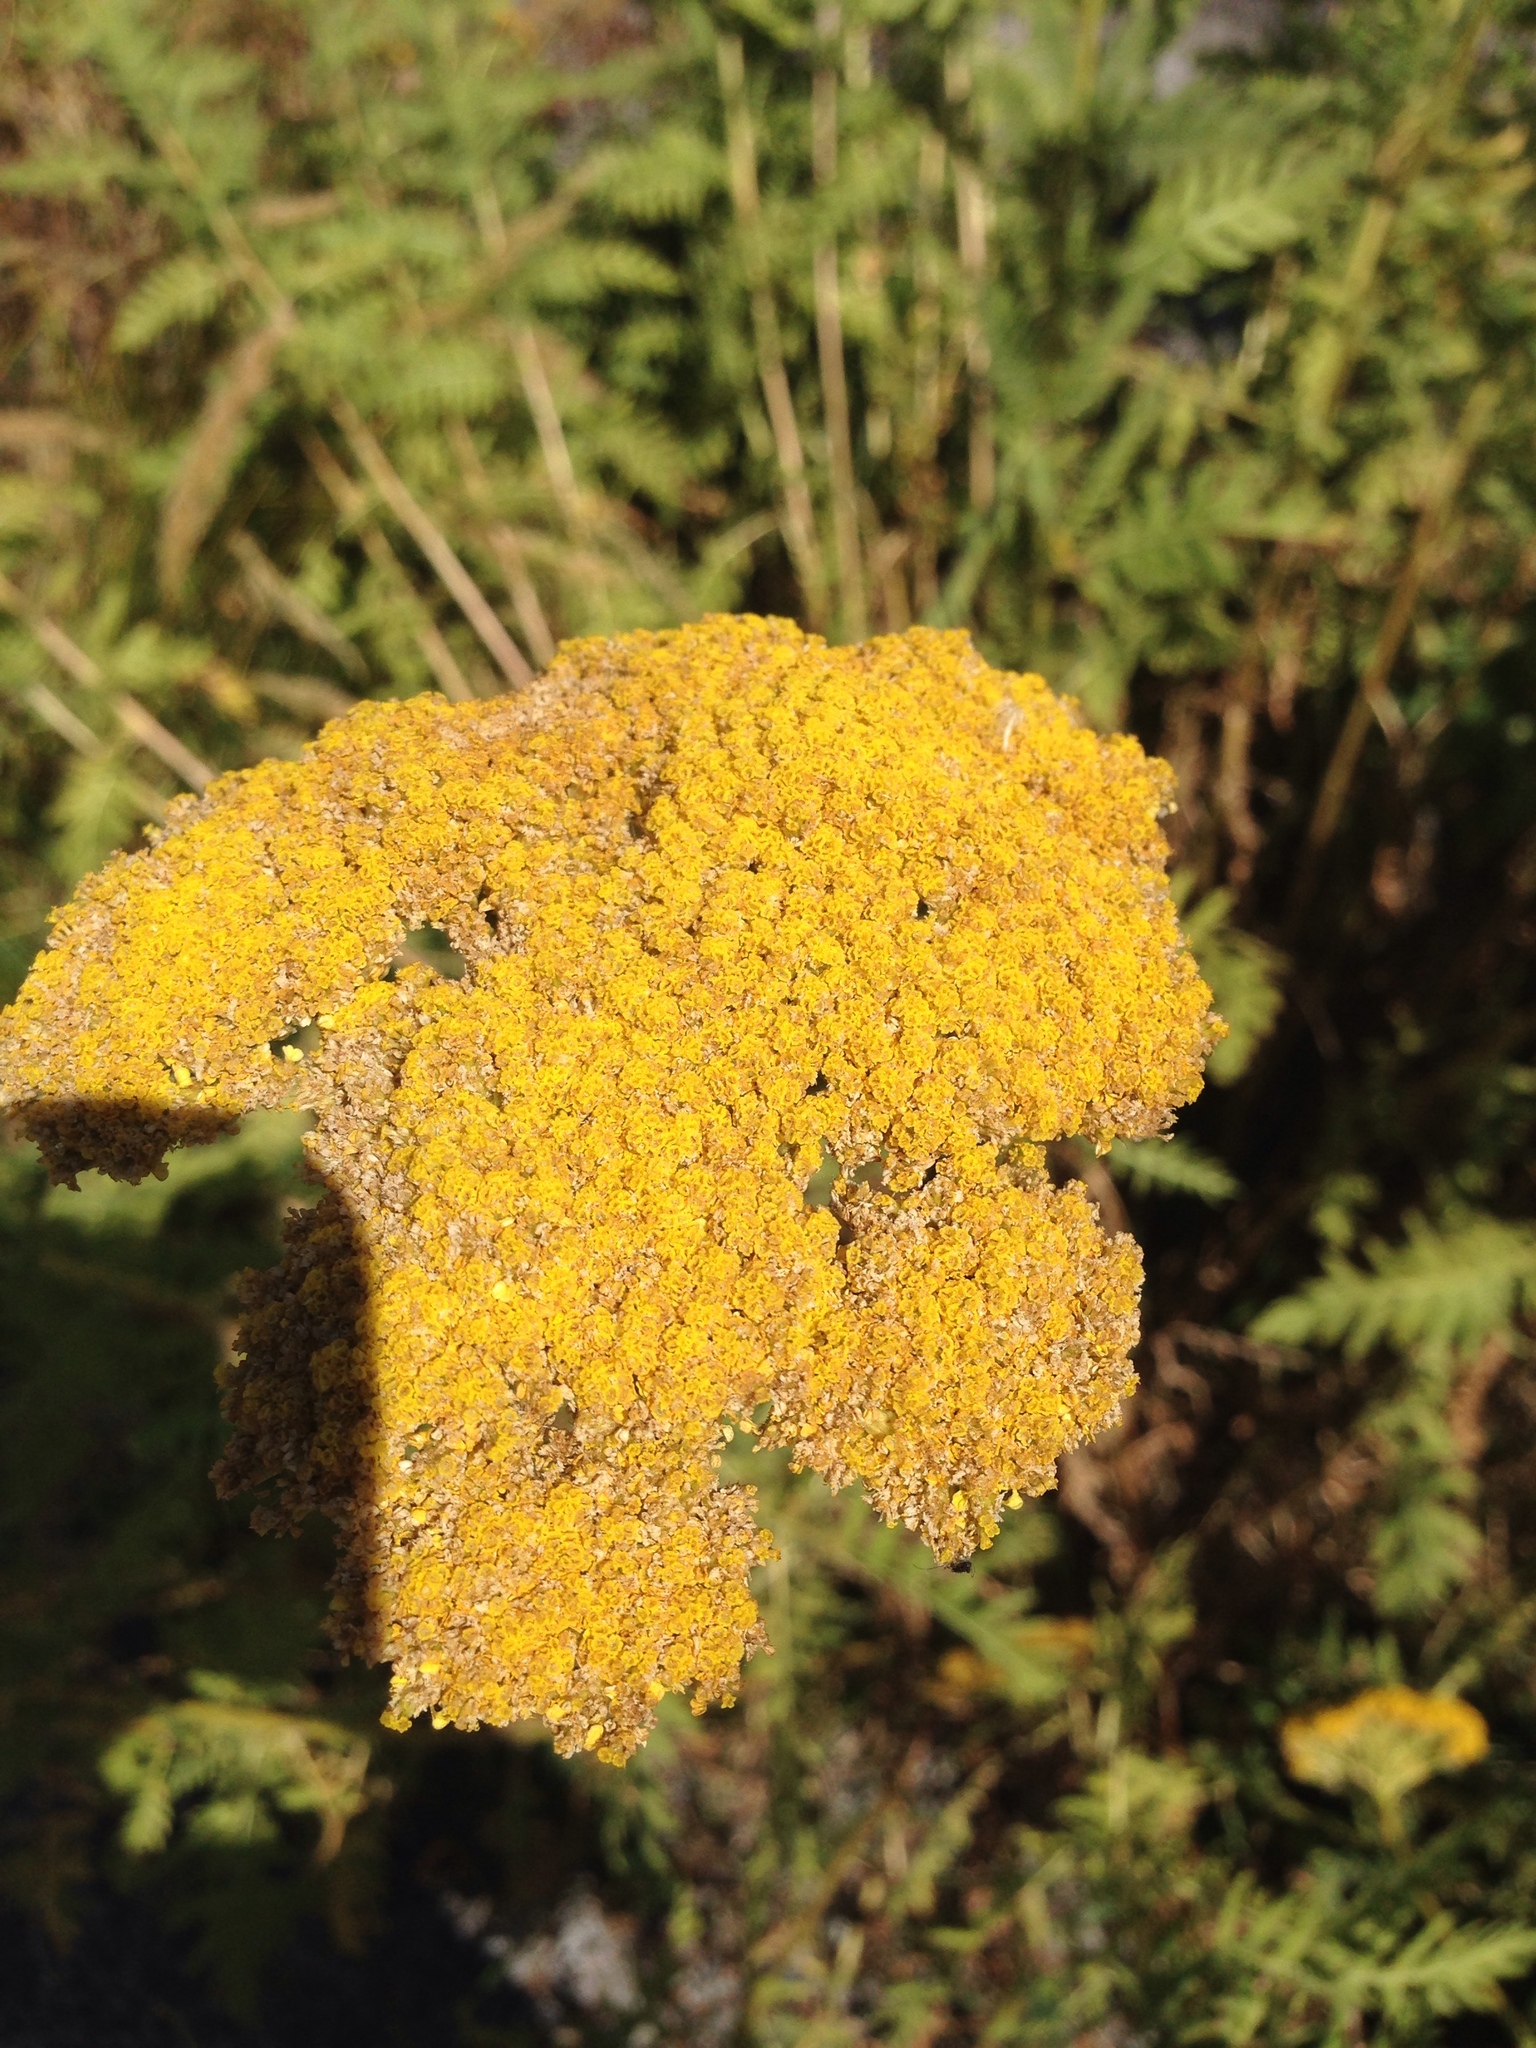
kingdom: Plantae
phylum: Tracheophyta
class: Magnoliopsida
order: Asterales
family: Asteraceae
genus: Achillea
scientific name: Achillea filipendulina
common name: Fernleaf yarrow
